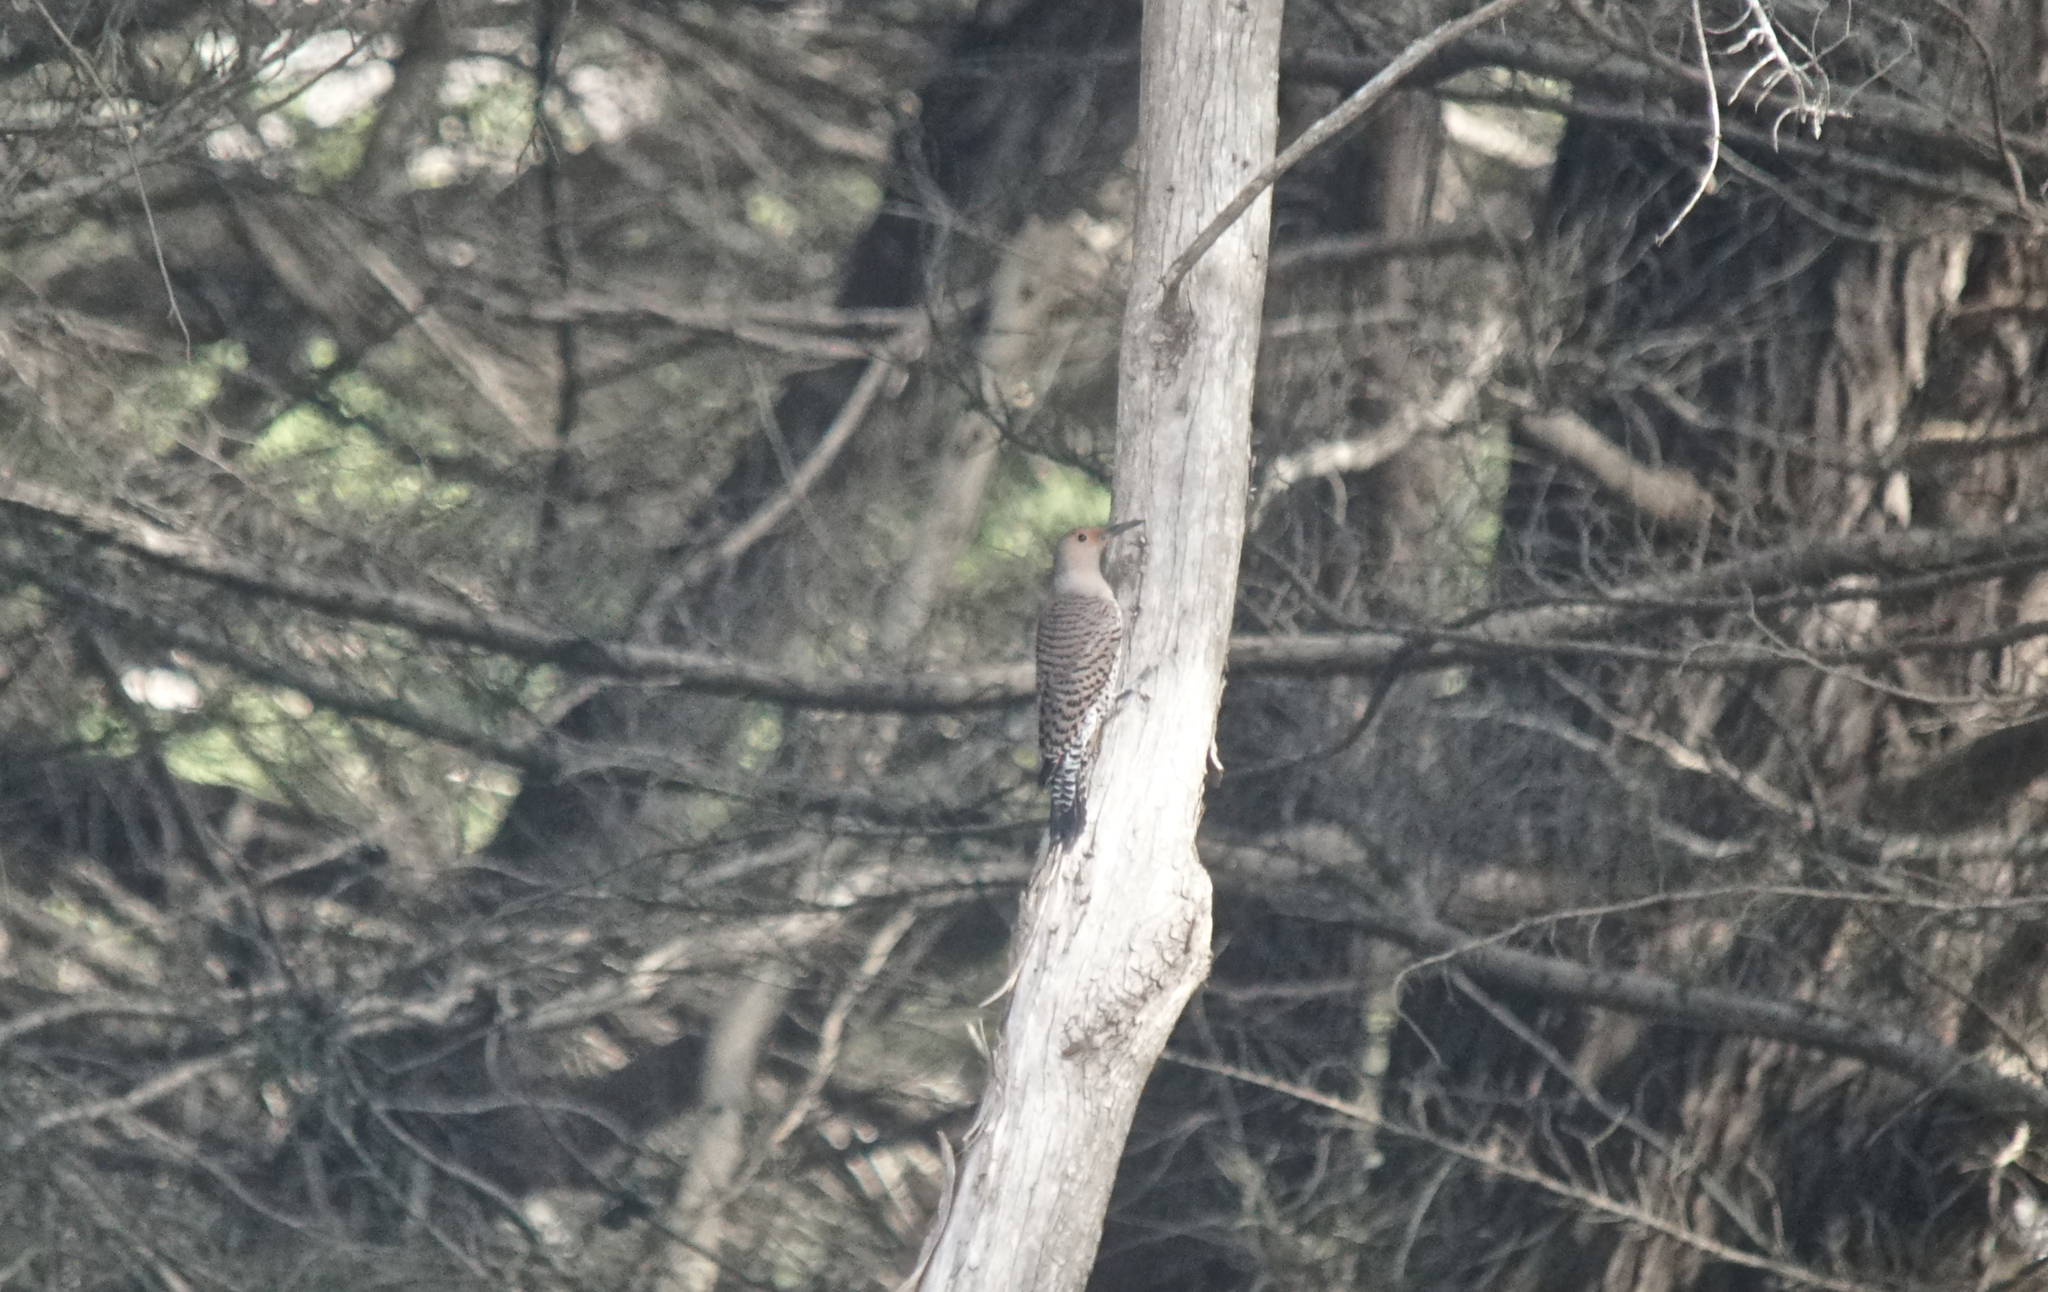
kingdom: Animalia
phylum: Chordata
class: Aves
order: Piciformes
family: Picidae
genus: Colaptes
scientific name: Colaptes auratus
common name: Northern flicker
